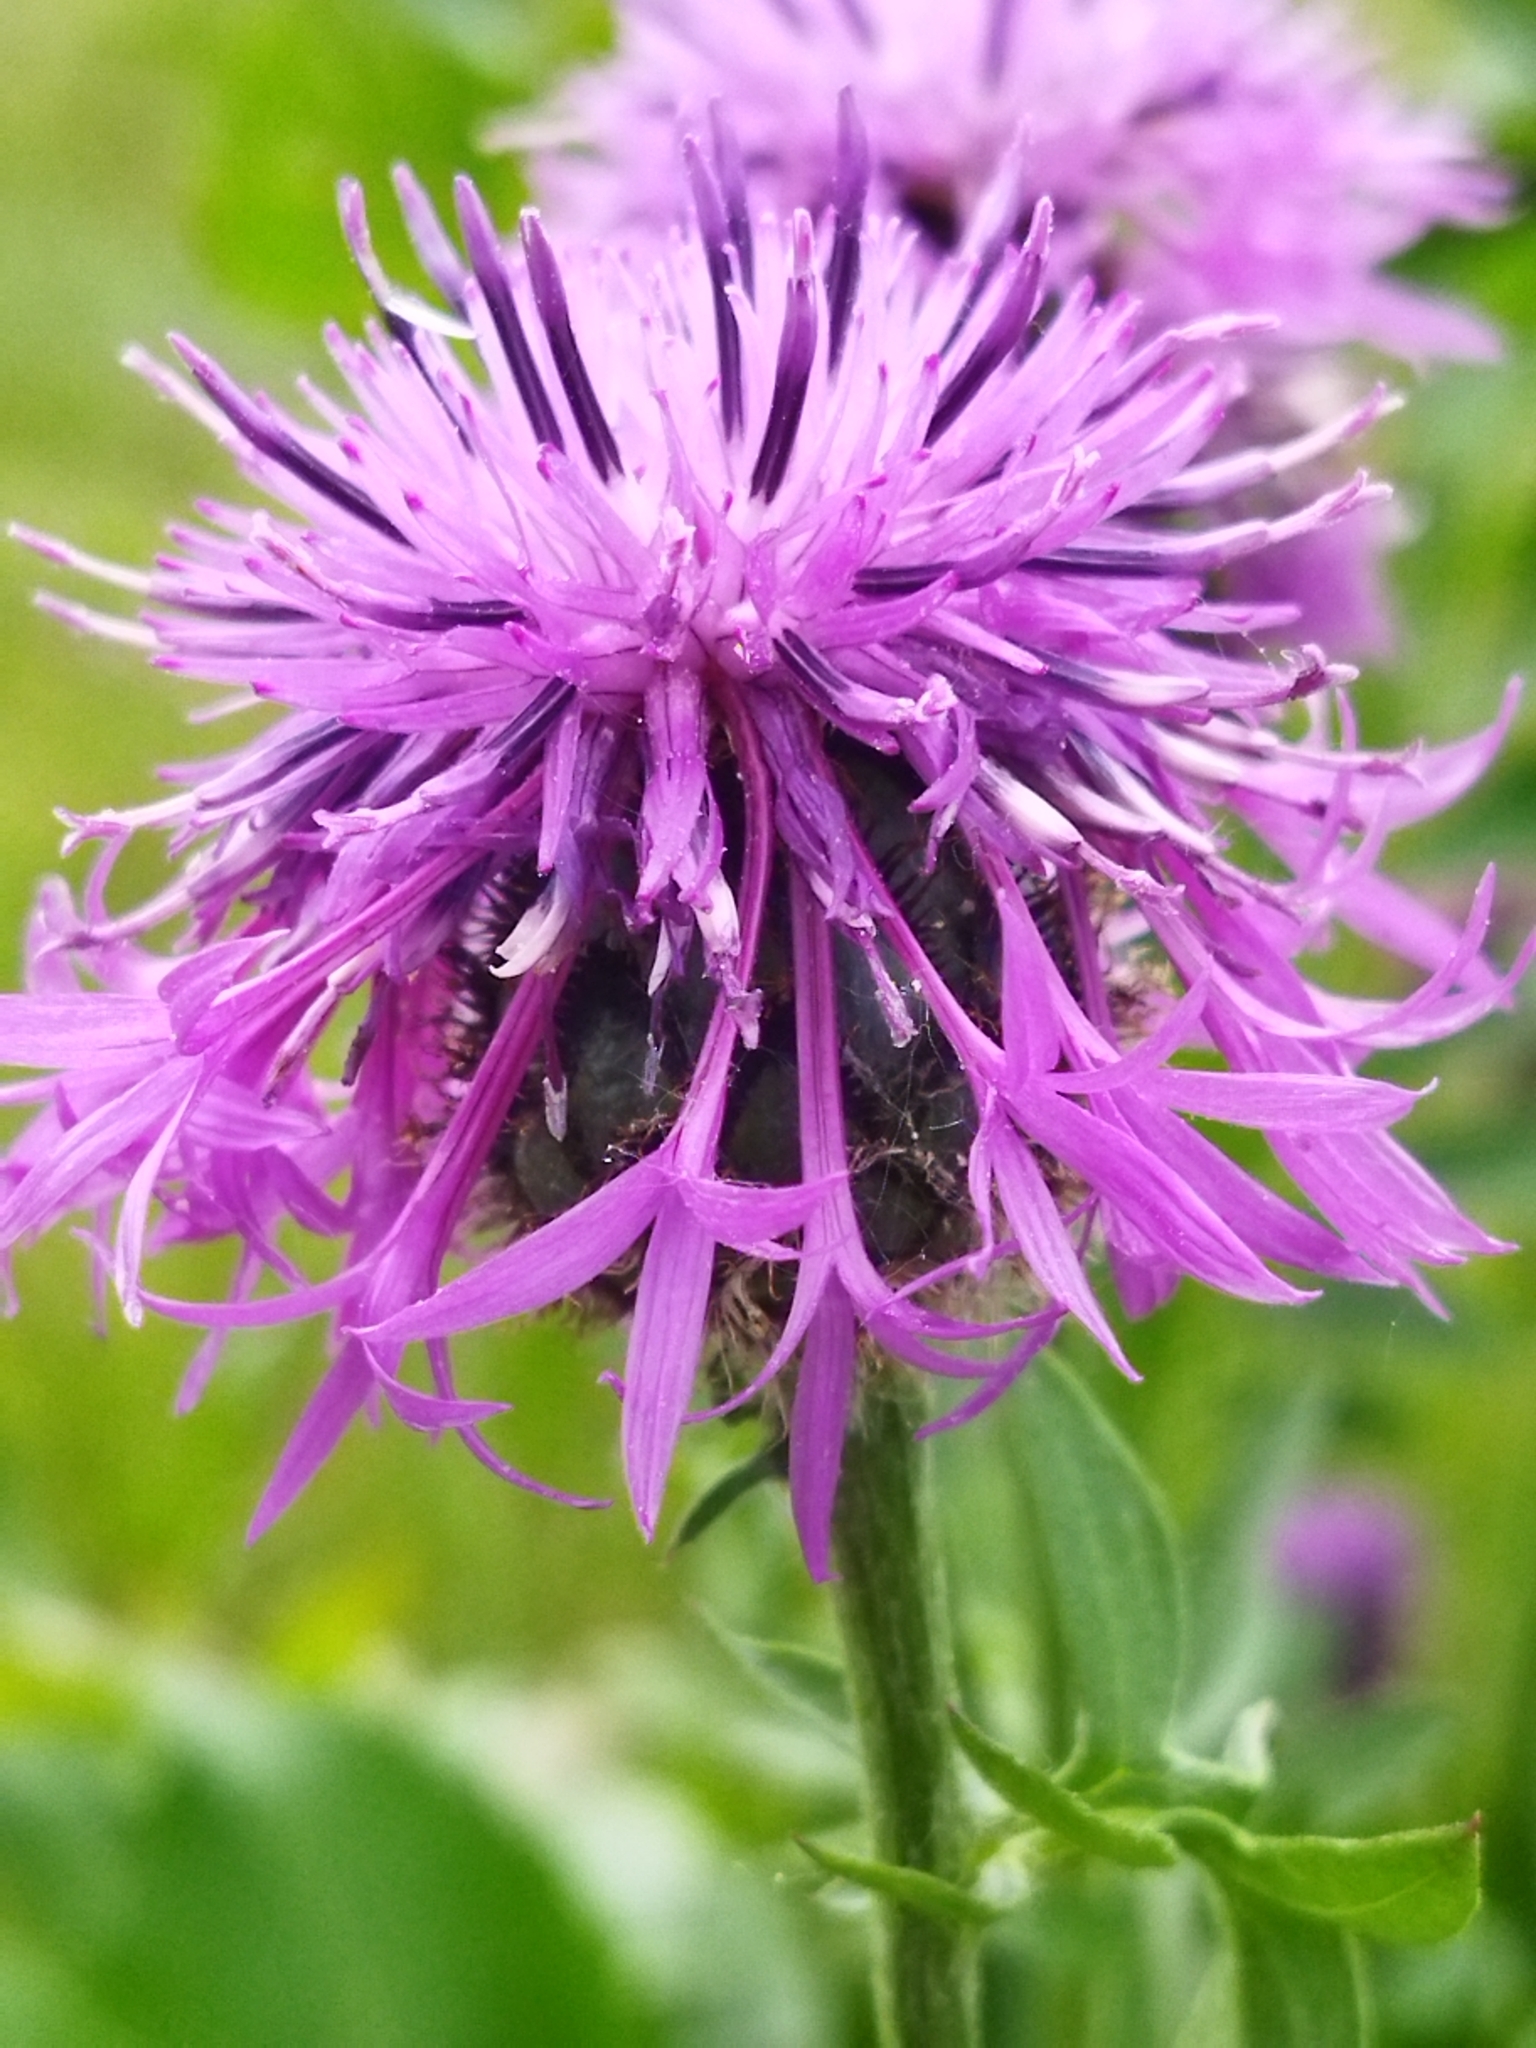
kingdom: Plantae
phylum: Tracheophyta
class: Magnoliopsida
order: Asterales
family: Asteraceae
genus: Centaurea
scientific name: Centaurea scabiosa
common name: Greater knapweed
